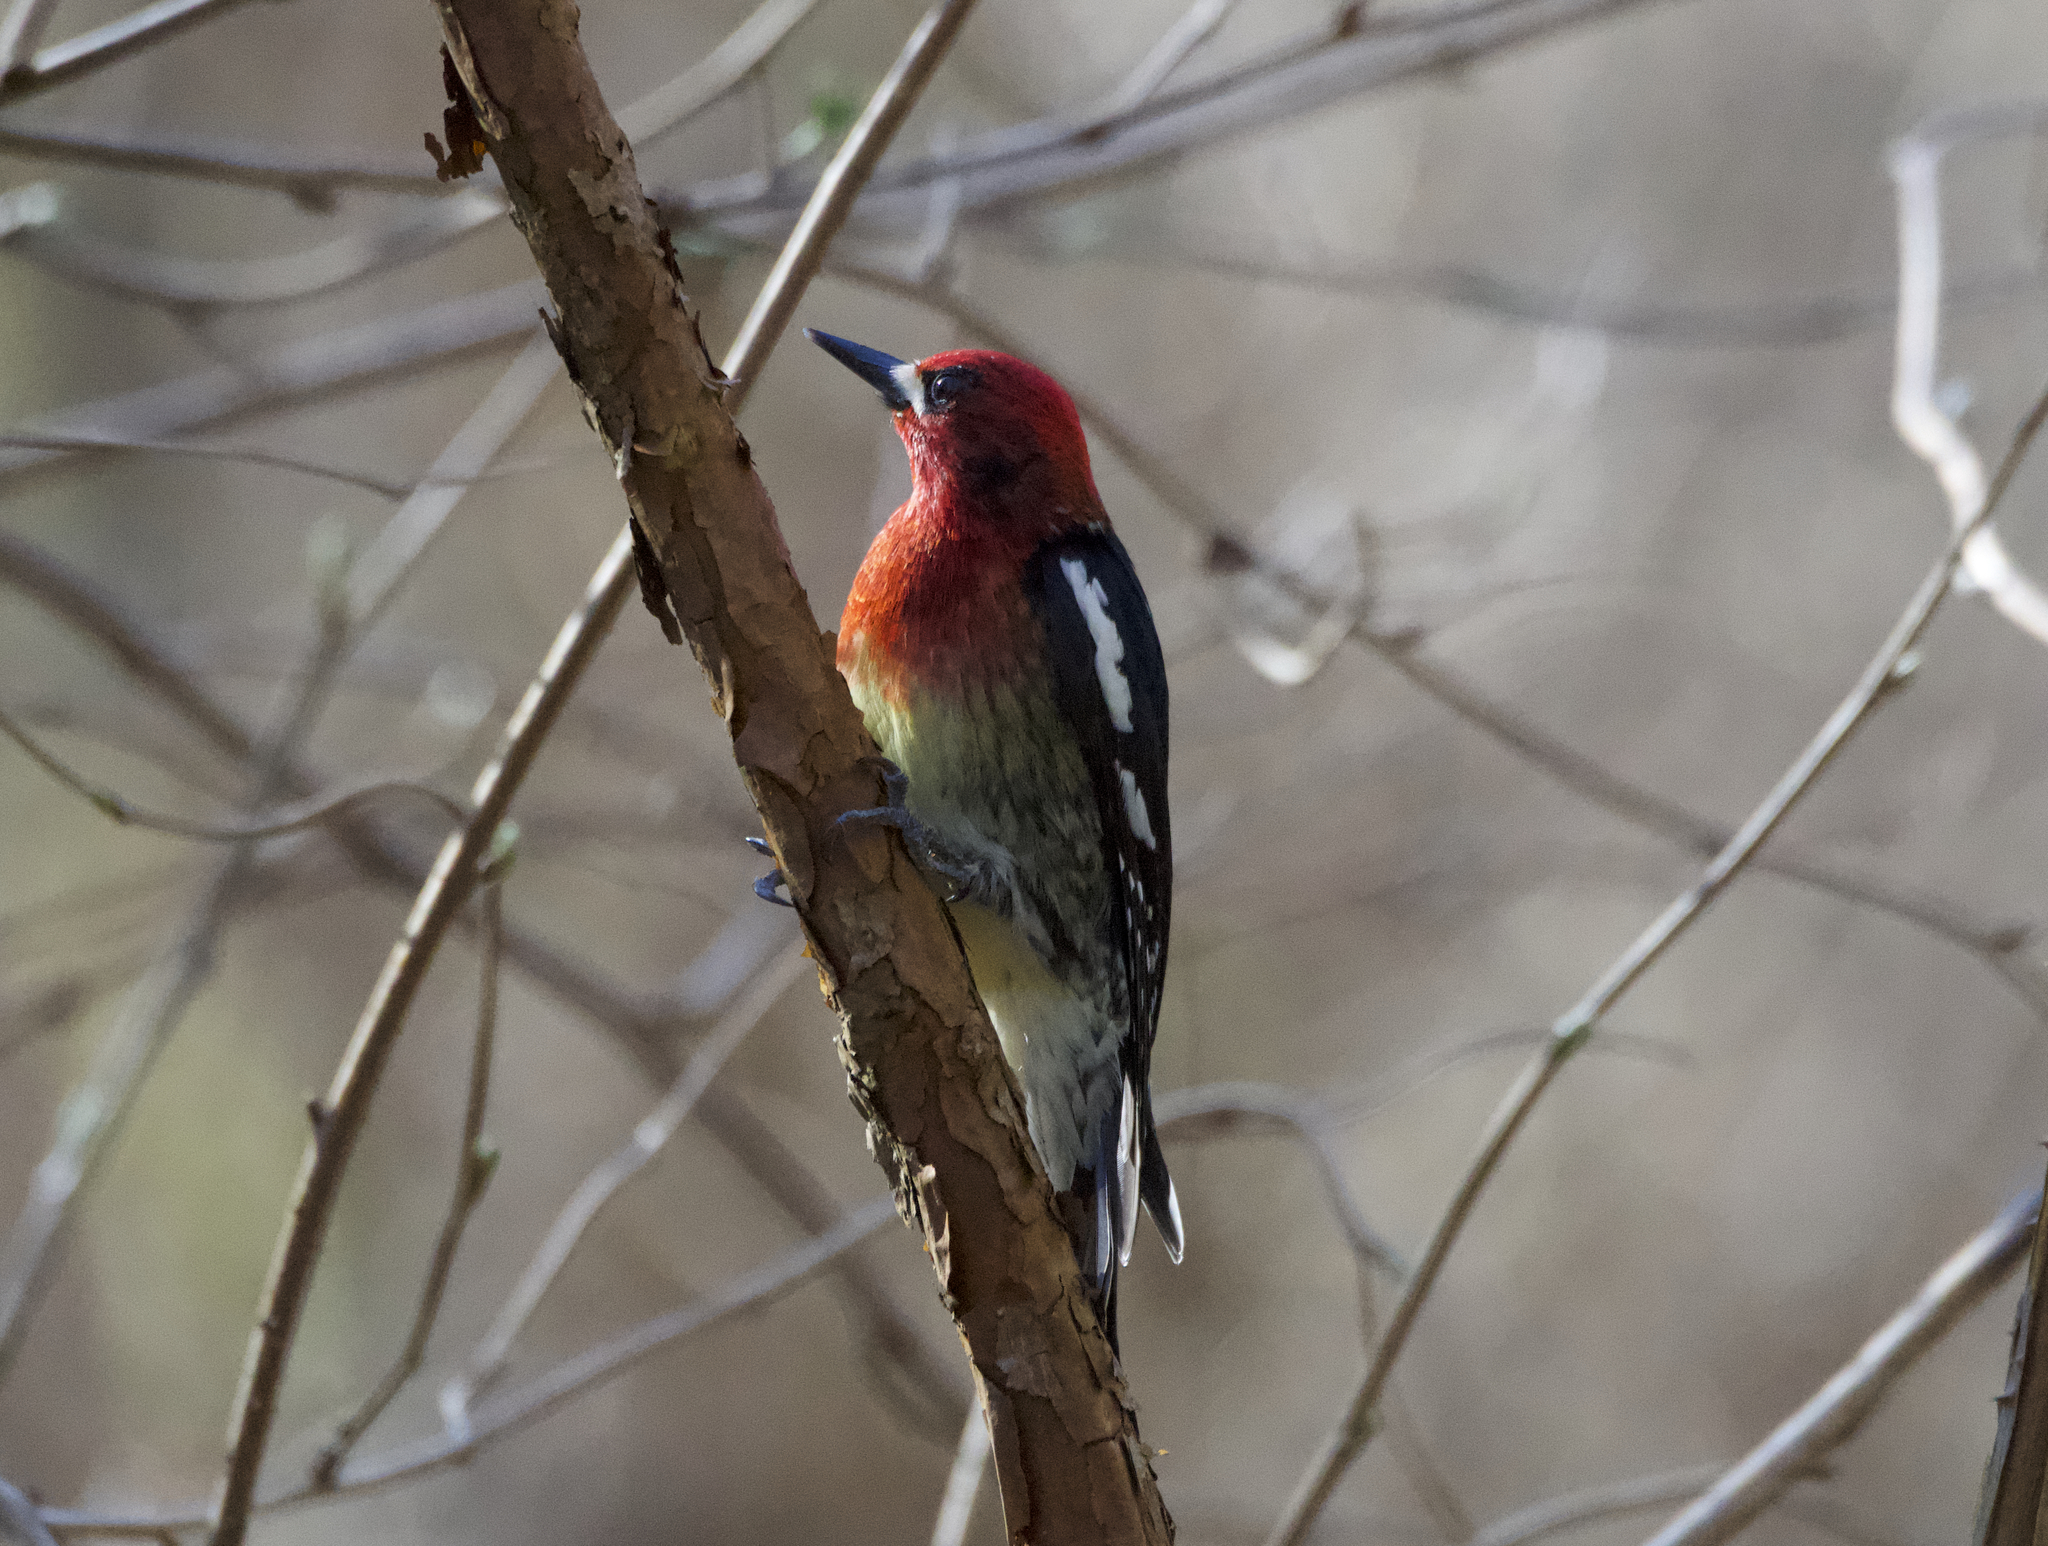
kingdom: Animalia
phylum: Chordata
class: Aves
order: Piciformes
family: Picidae
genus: Sphyrapicus
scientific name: Sphyrapicus ruber
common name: Red-breasted sapsucker
